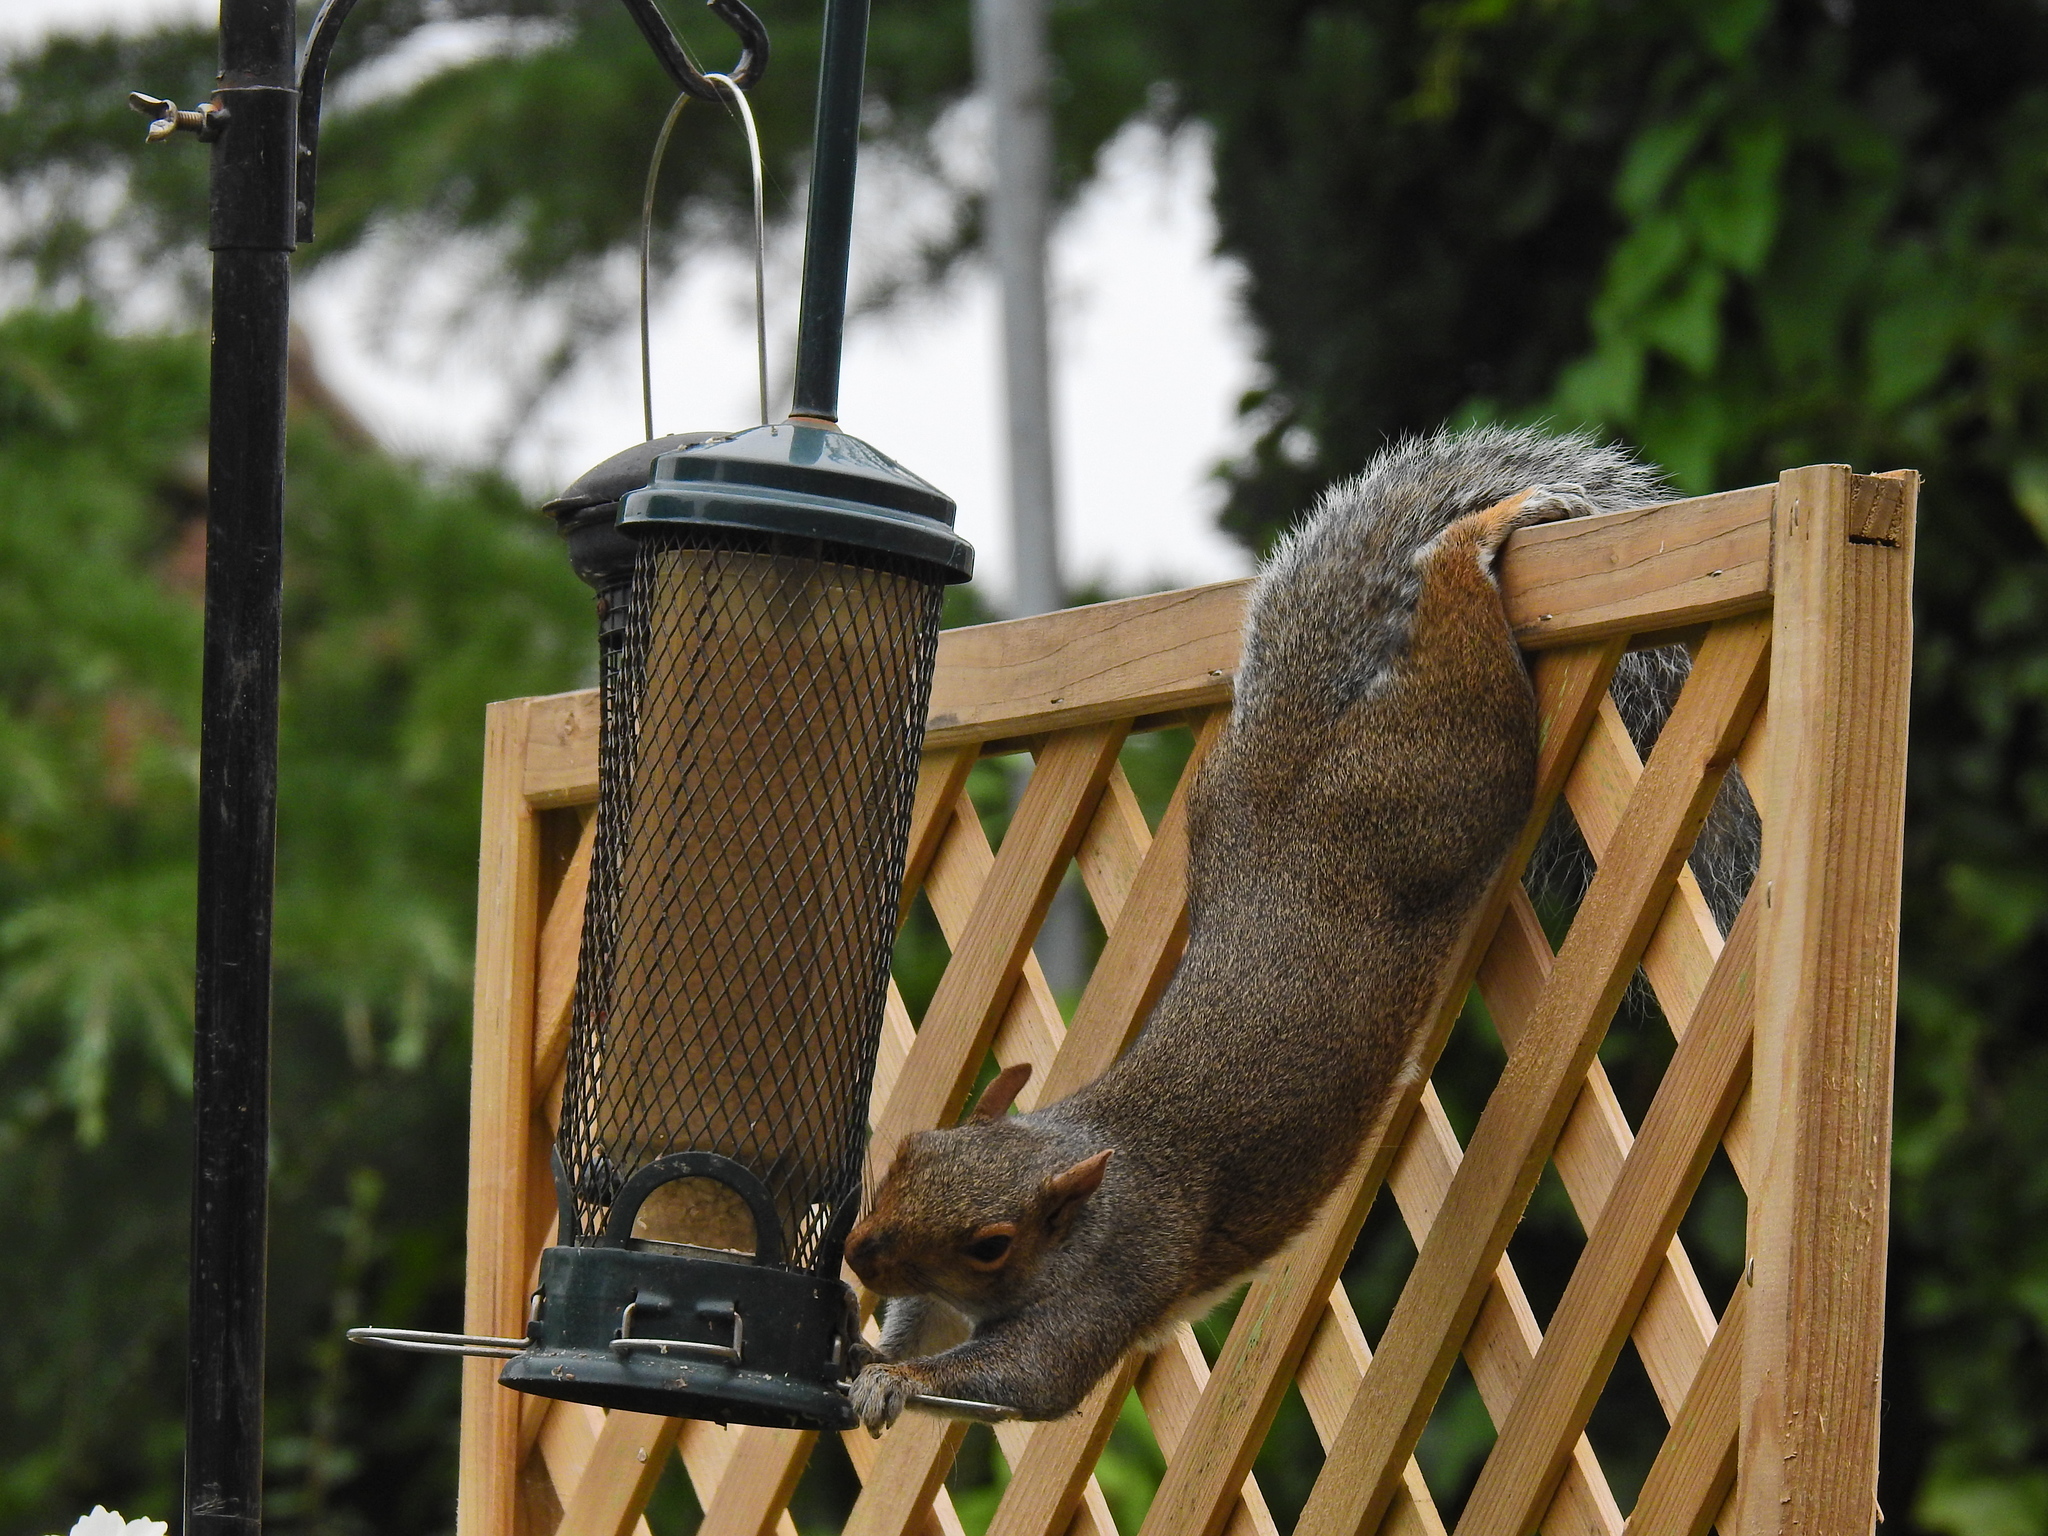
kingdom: Animalia
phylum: Chordata
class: Mammalia
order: Rodentia
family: Sciuridae
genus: Sciurus
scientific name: Sciurus carolinensis
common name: Eastern gray squirrel
